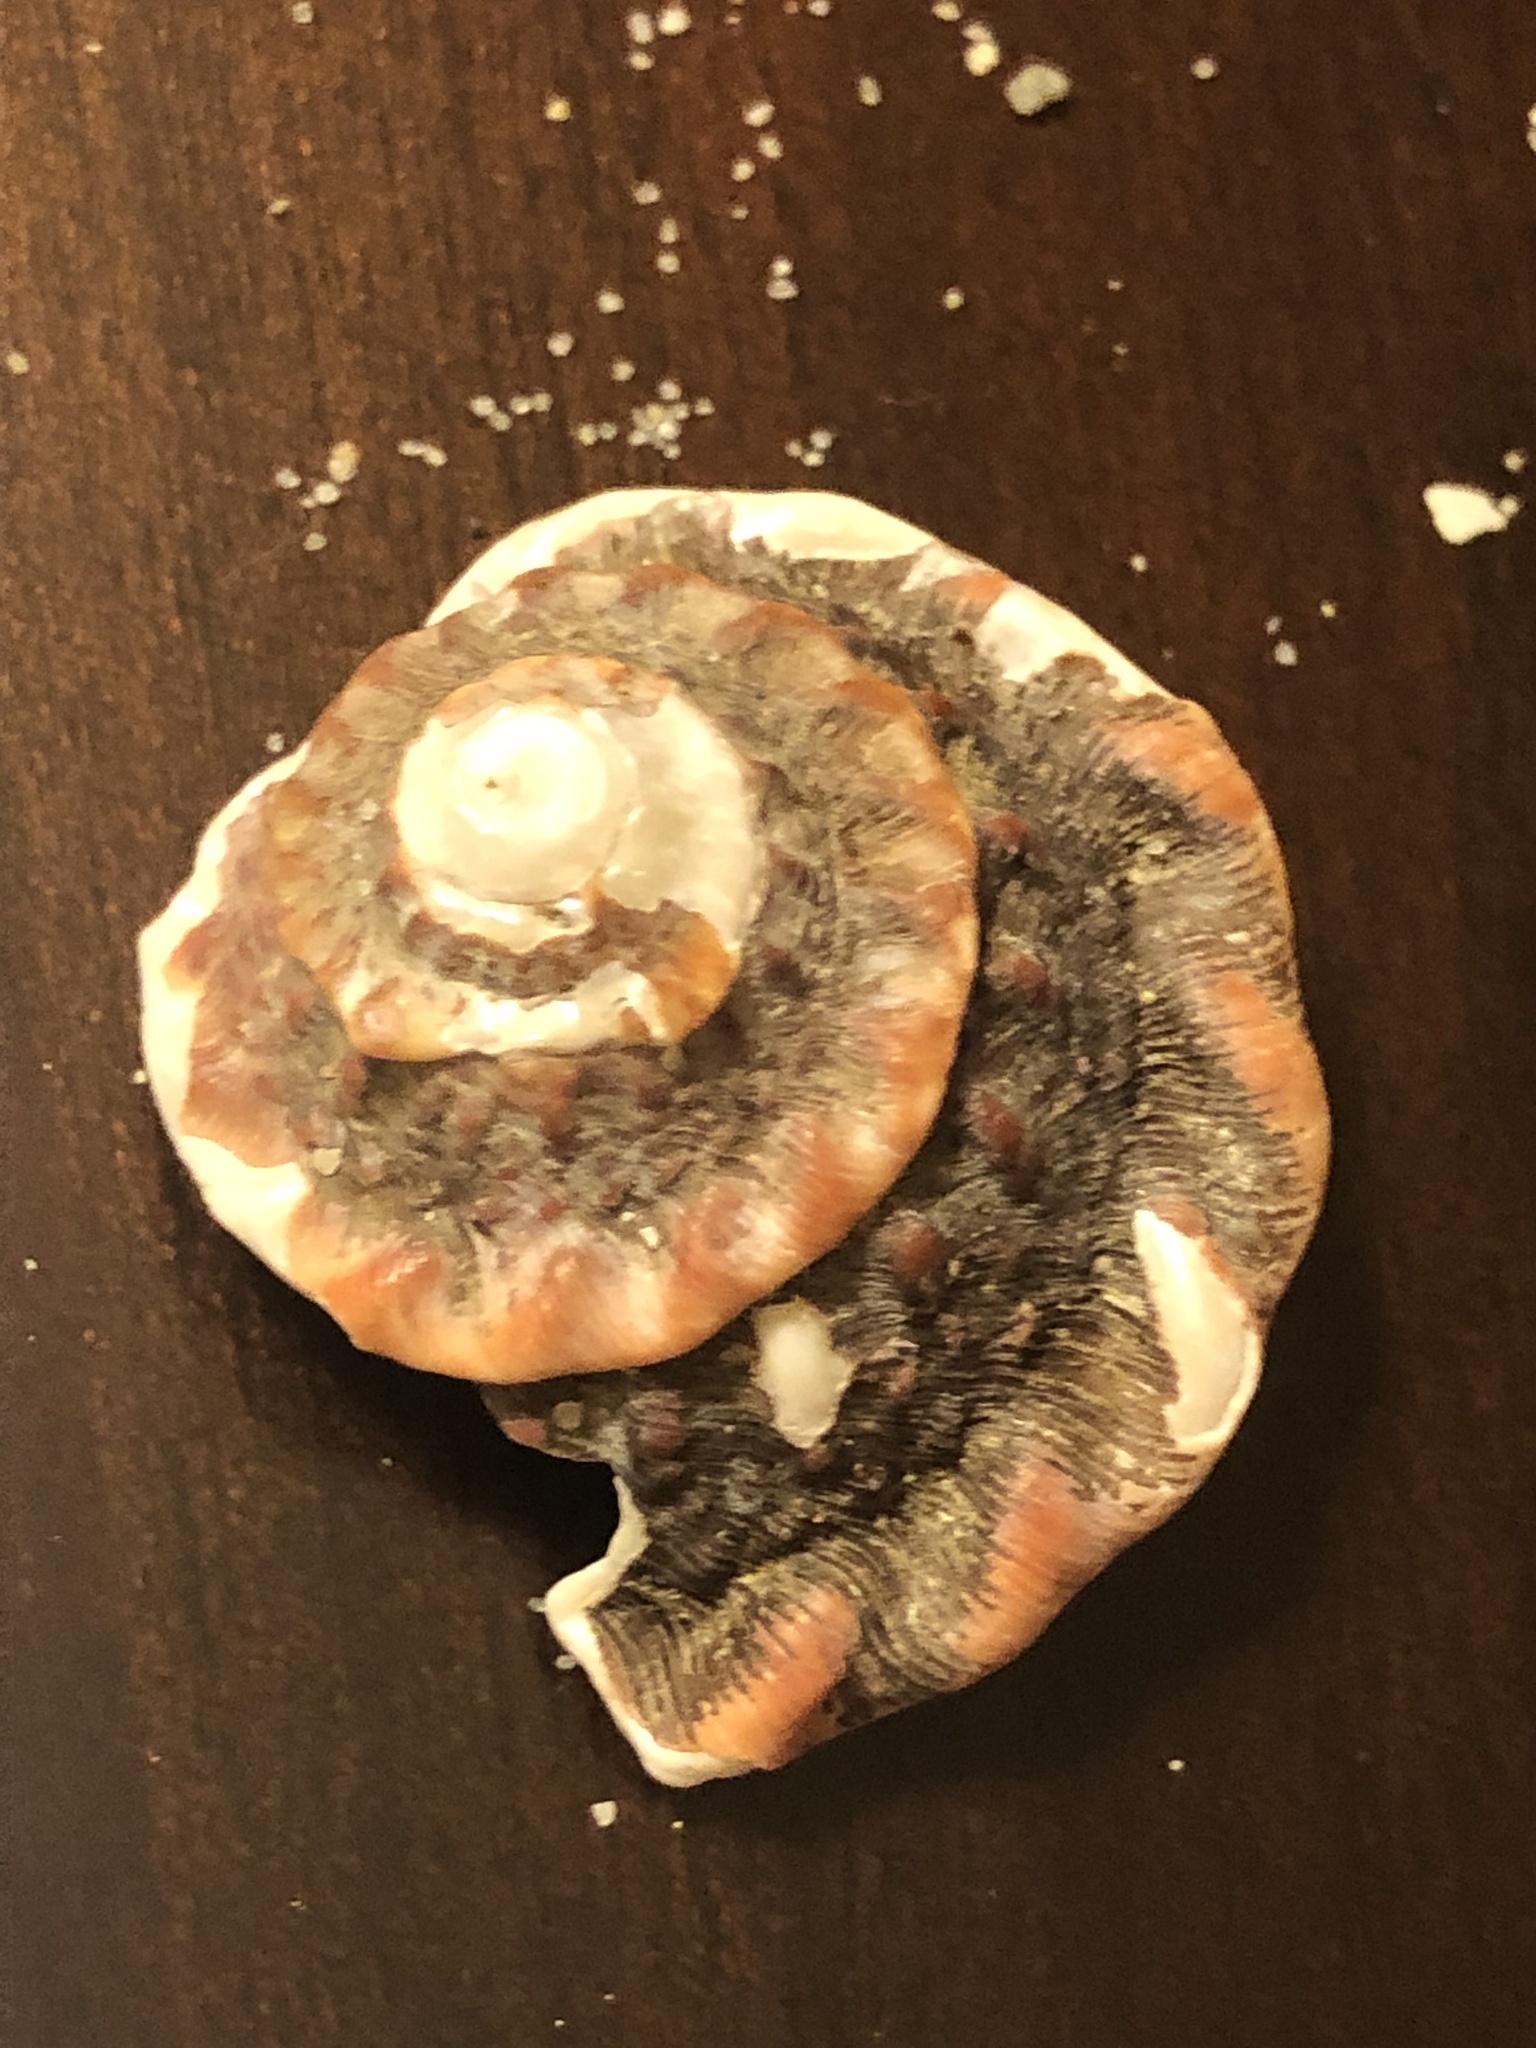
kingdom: Animalia
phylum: Mollusca
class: Gastropoda
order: Trochida
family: Turbinidae
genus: Megastraea
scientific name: Megastraea undosa
